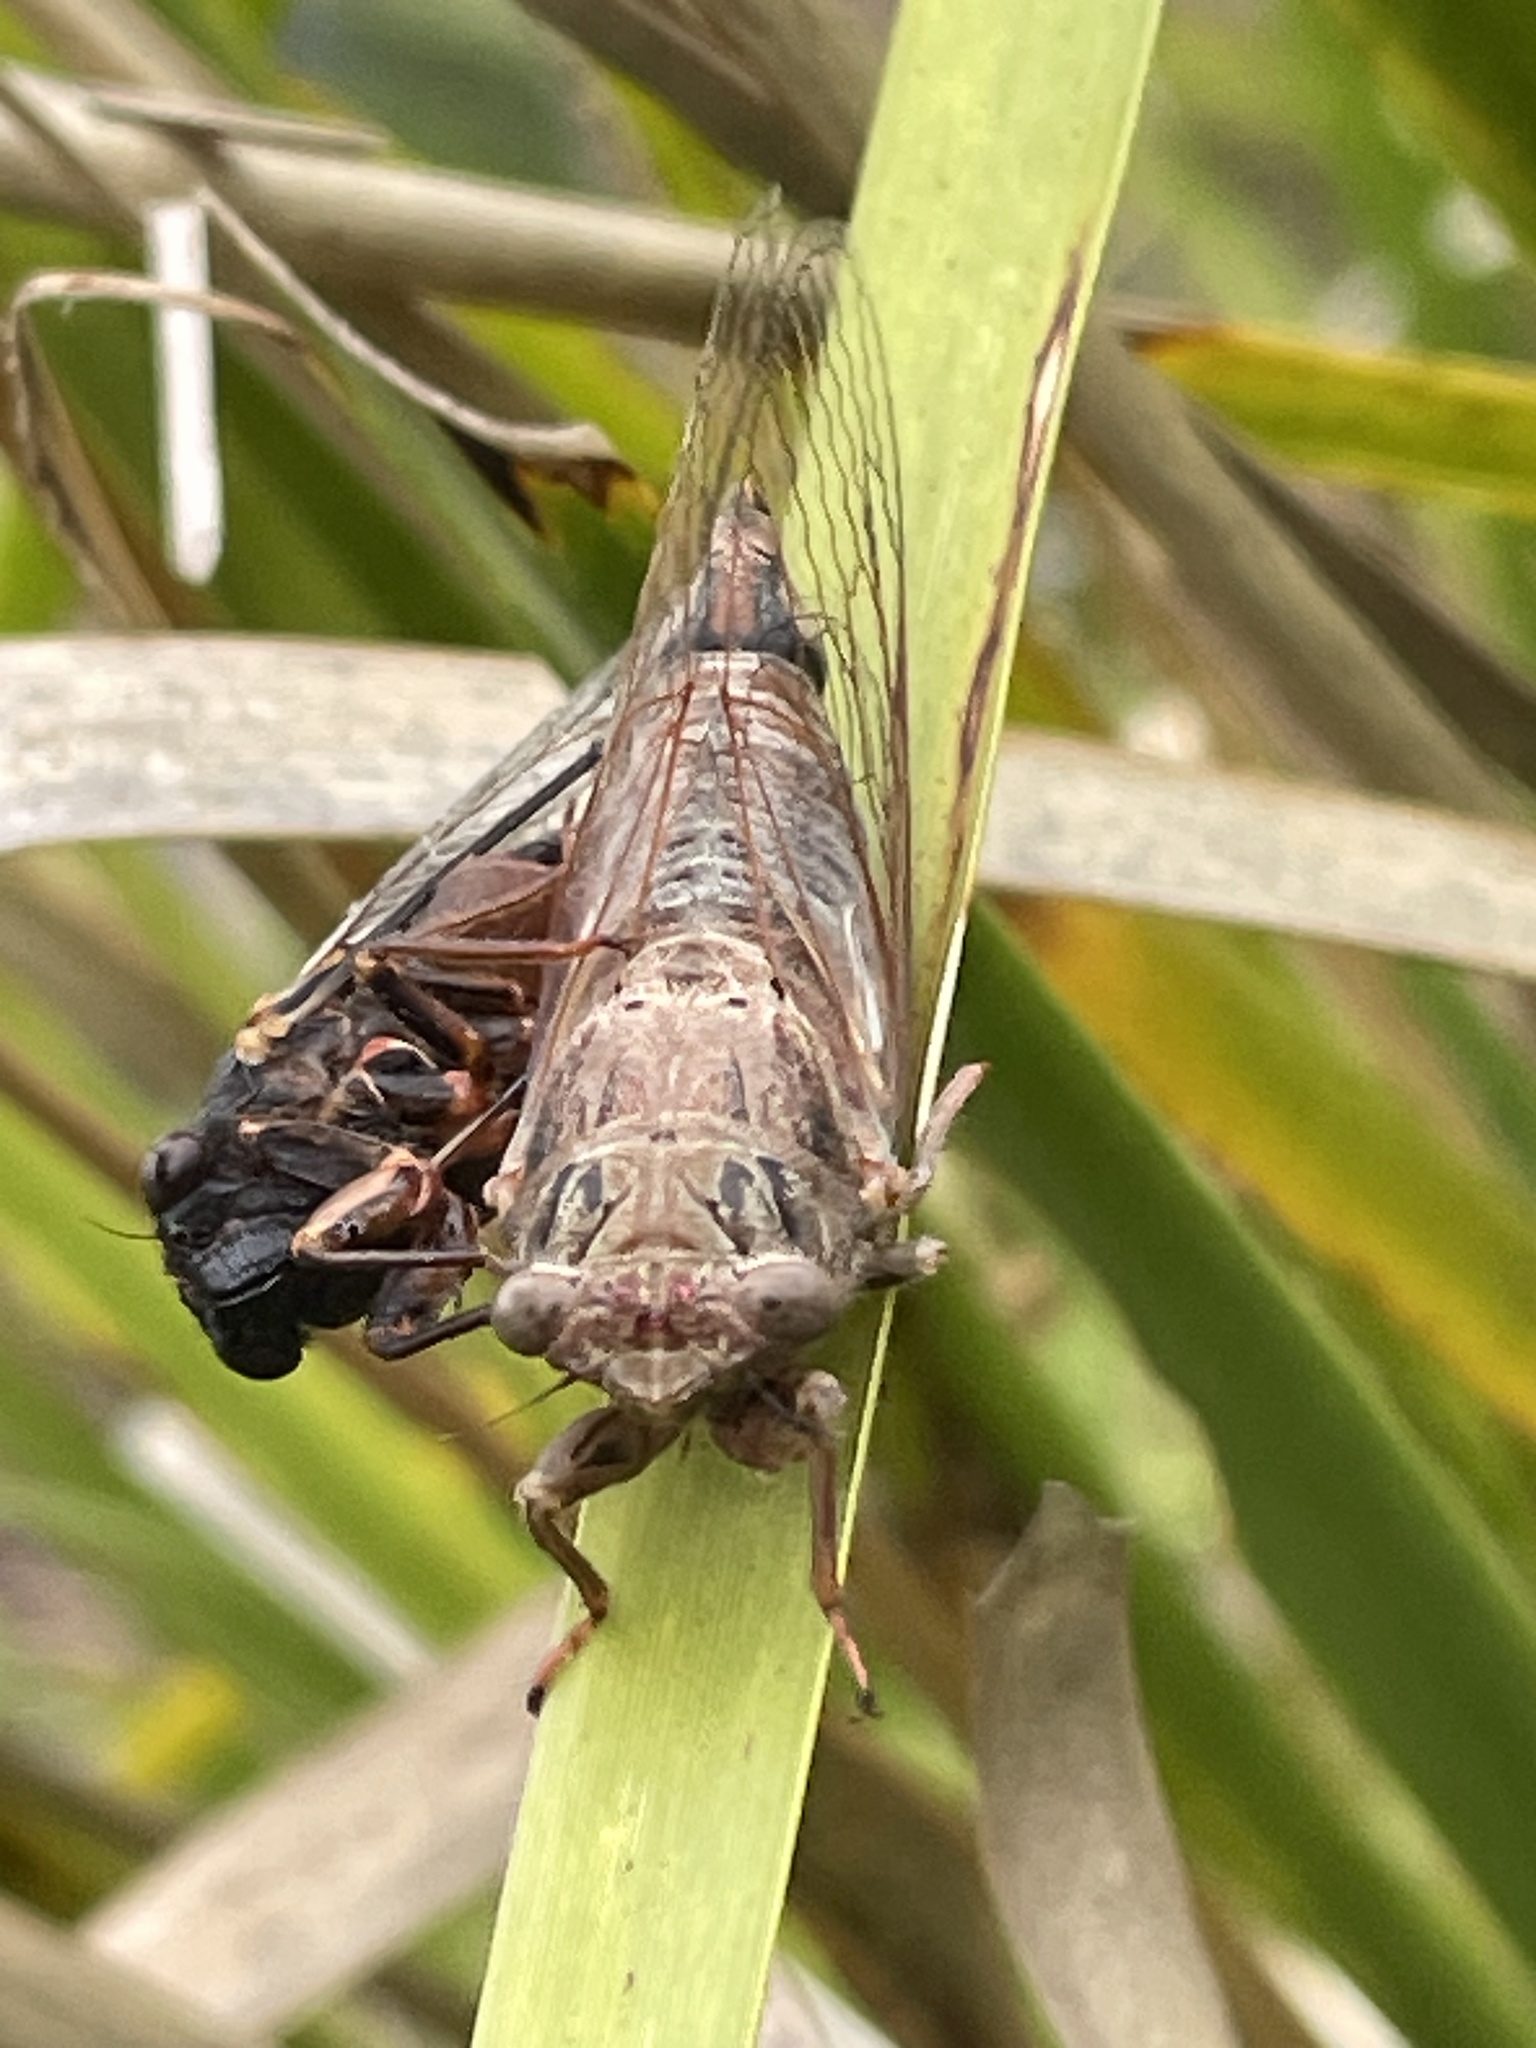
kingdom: Animalia
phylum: Arthropoda
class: Insecta
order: Hemiptera
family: Cicadidae
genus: Birrima
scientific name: Birrima castanea
